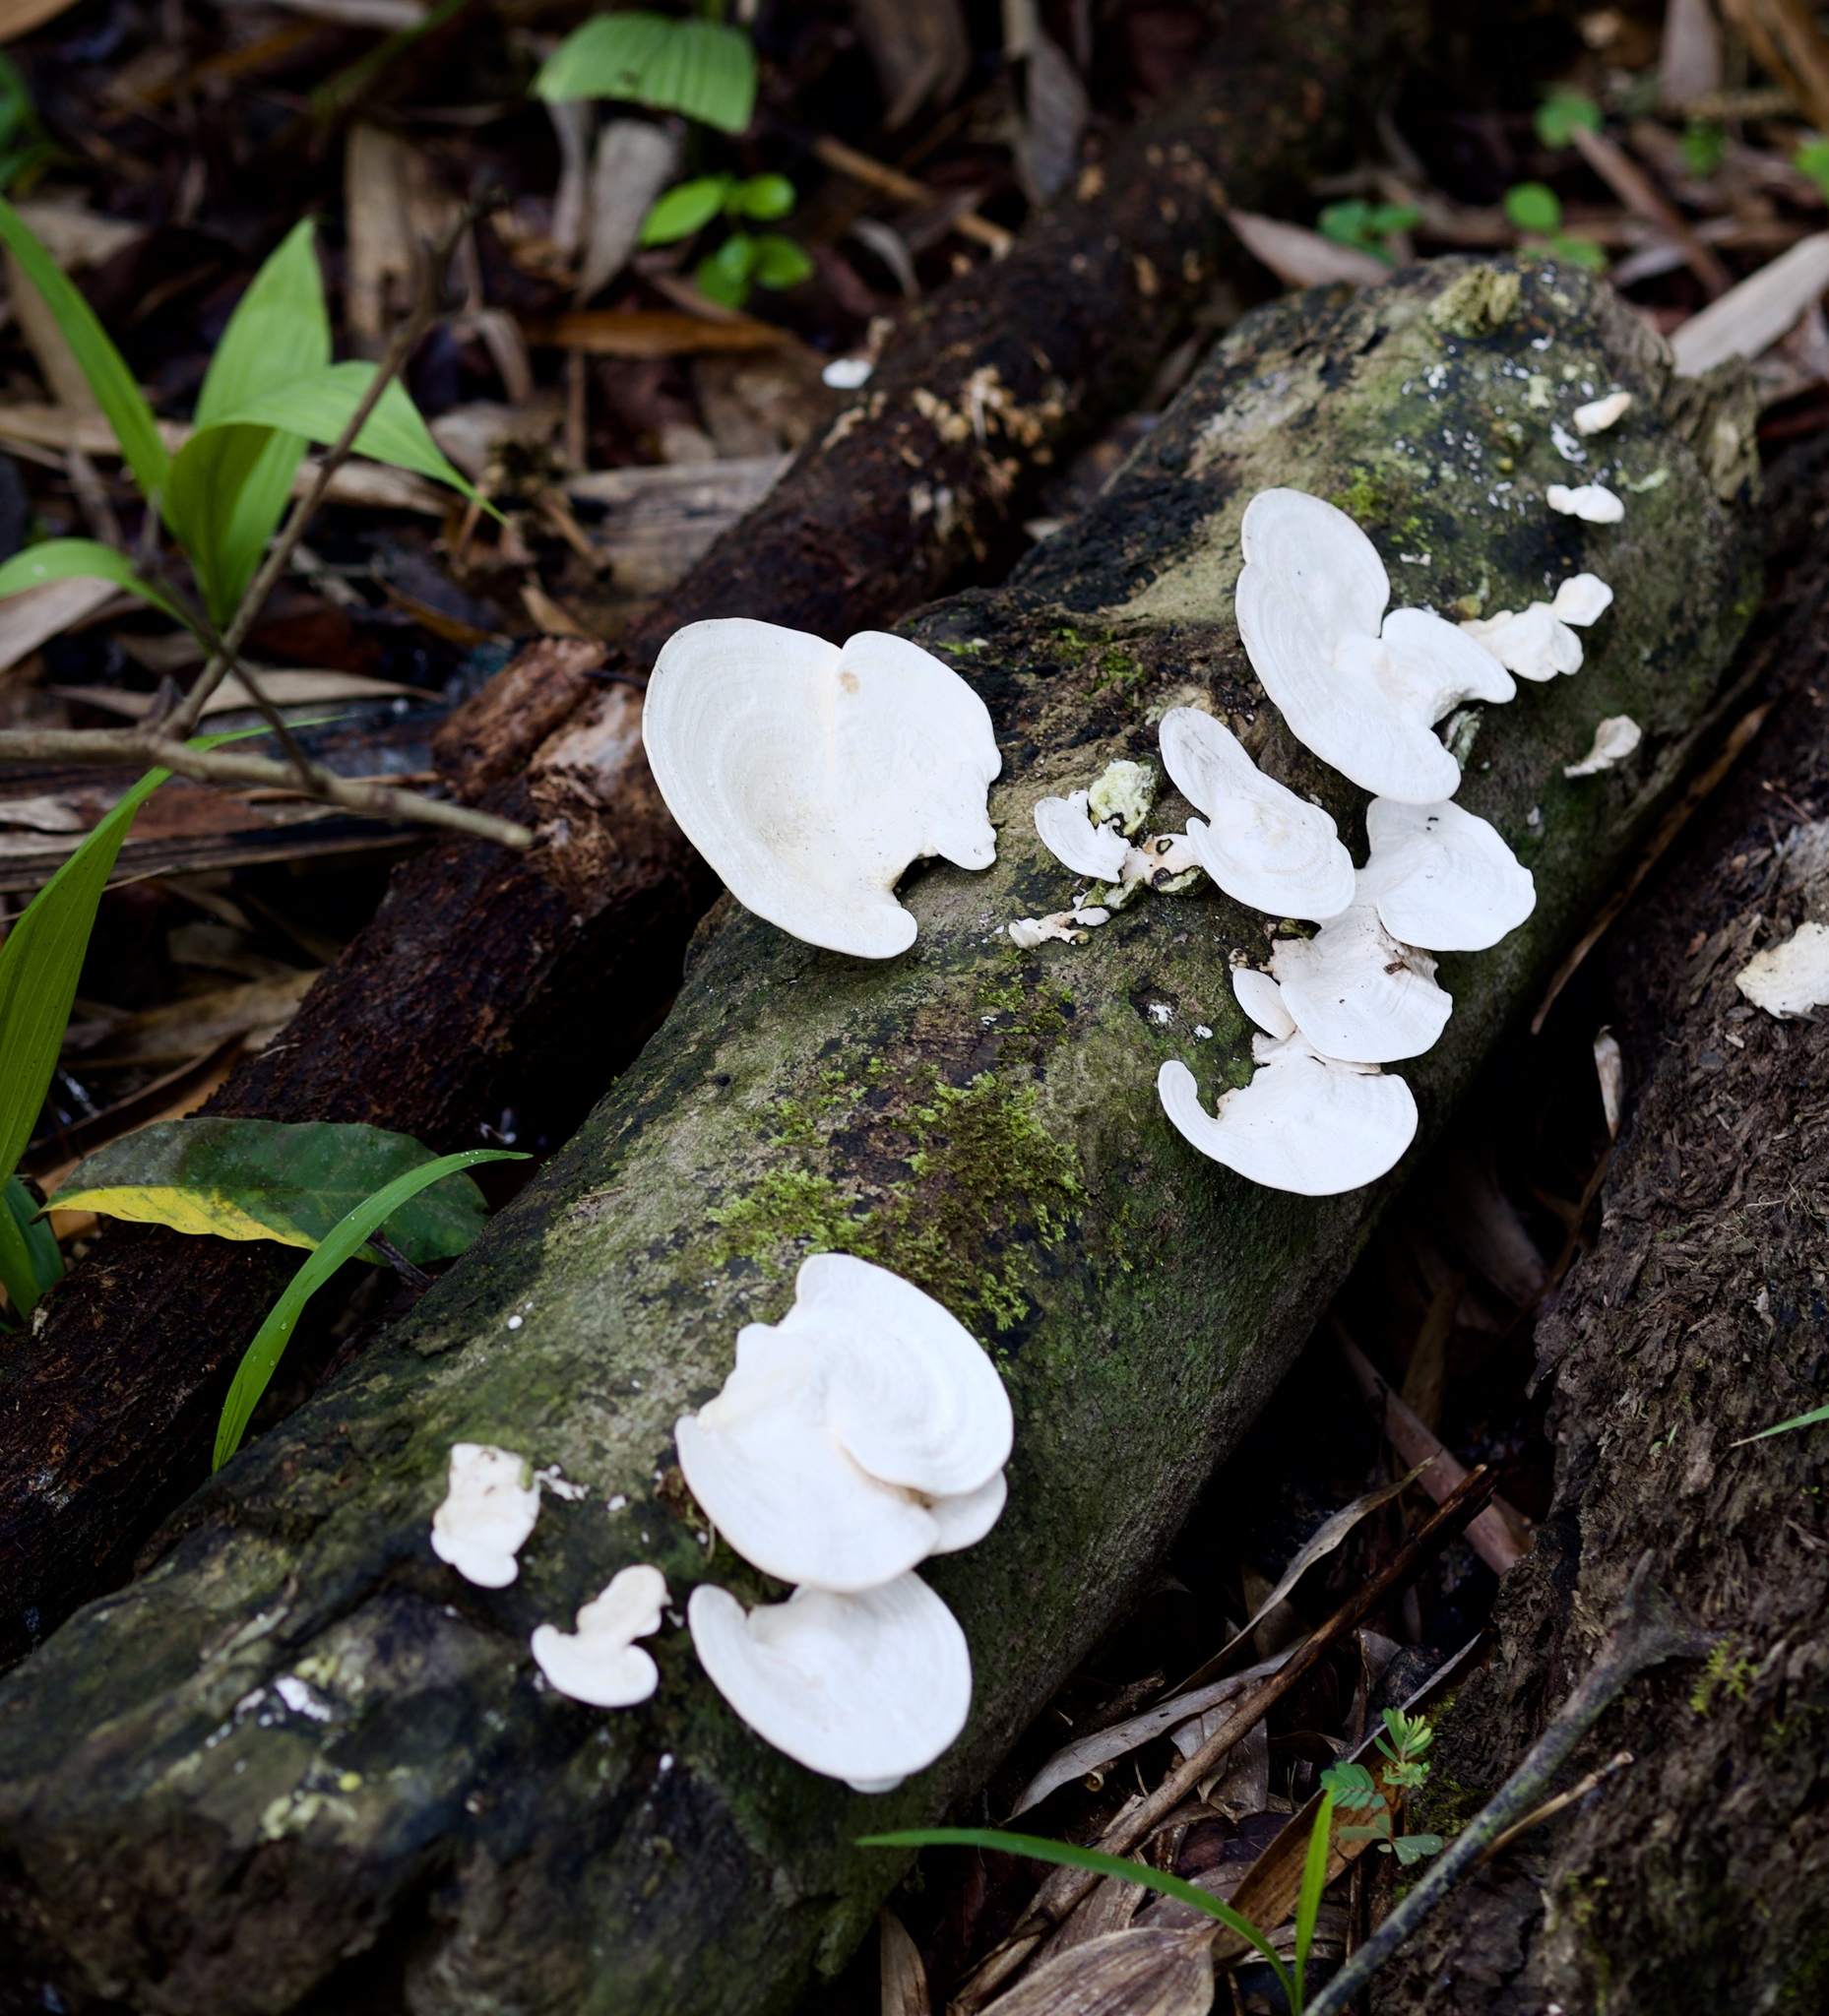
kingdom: Fungi
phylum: Basidiomycota
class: Agaricomycetes
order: Polyporales
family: Polyporaceae
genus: Trametes
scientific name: Trametes elegans
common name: White maze polypore
